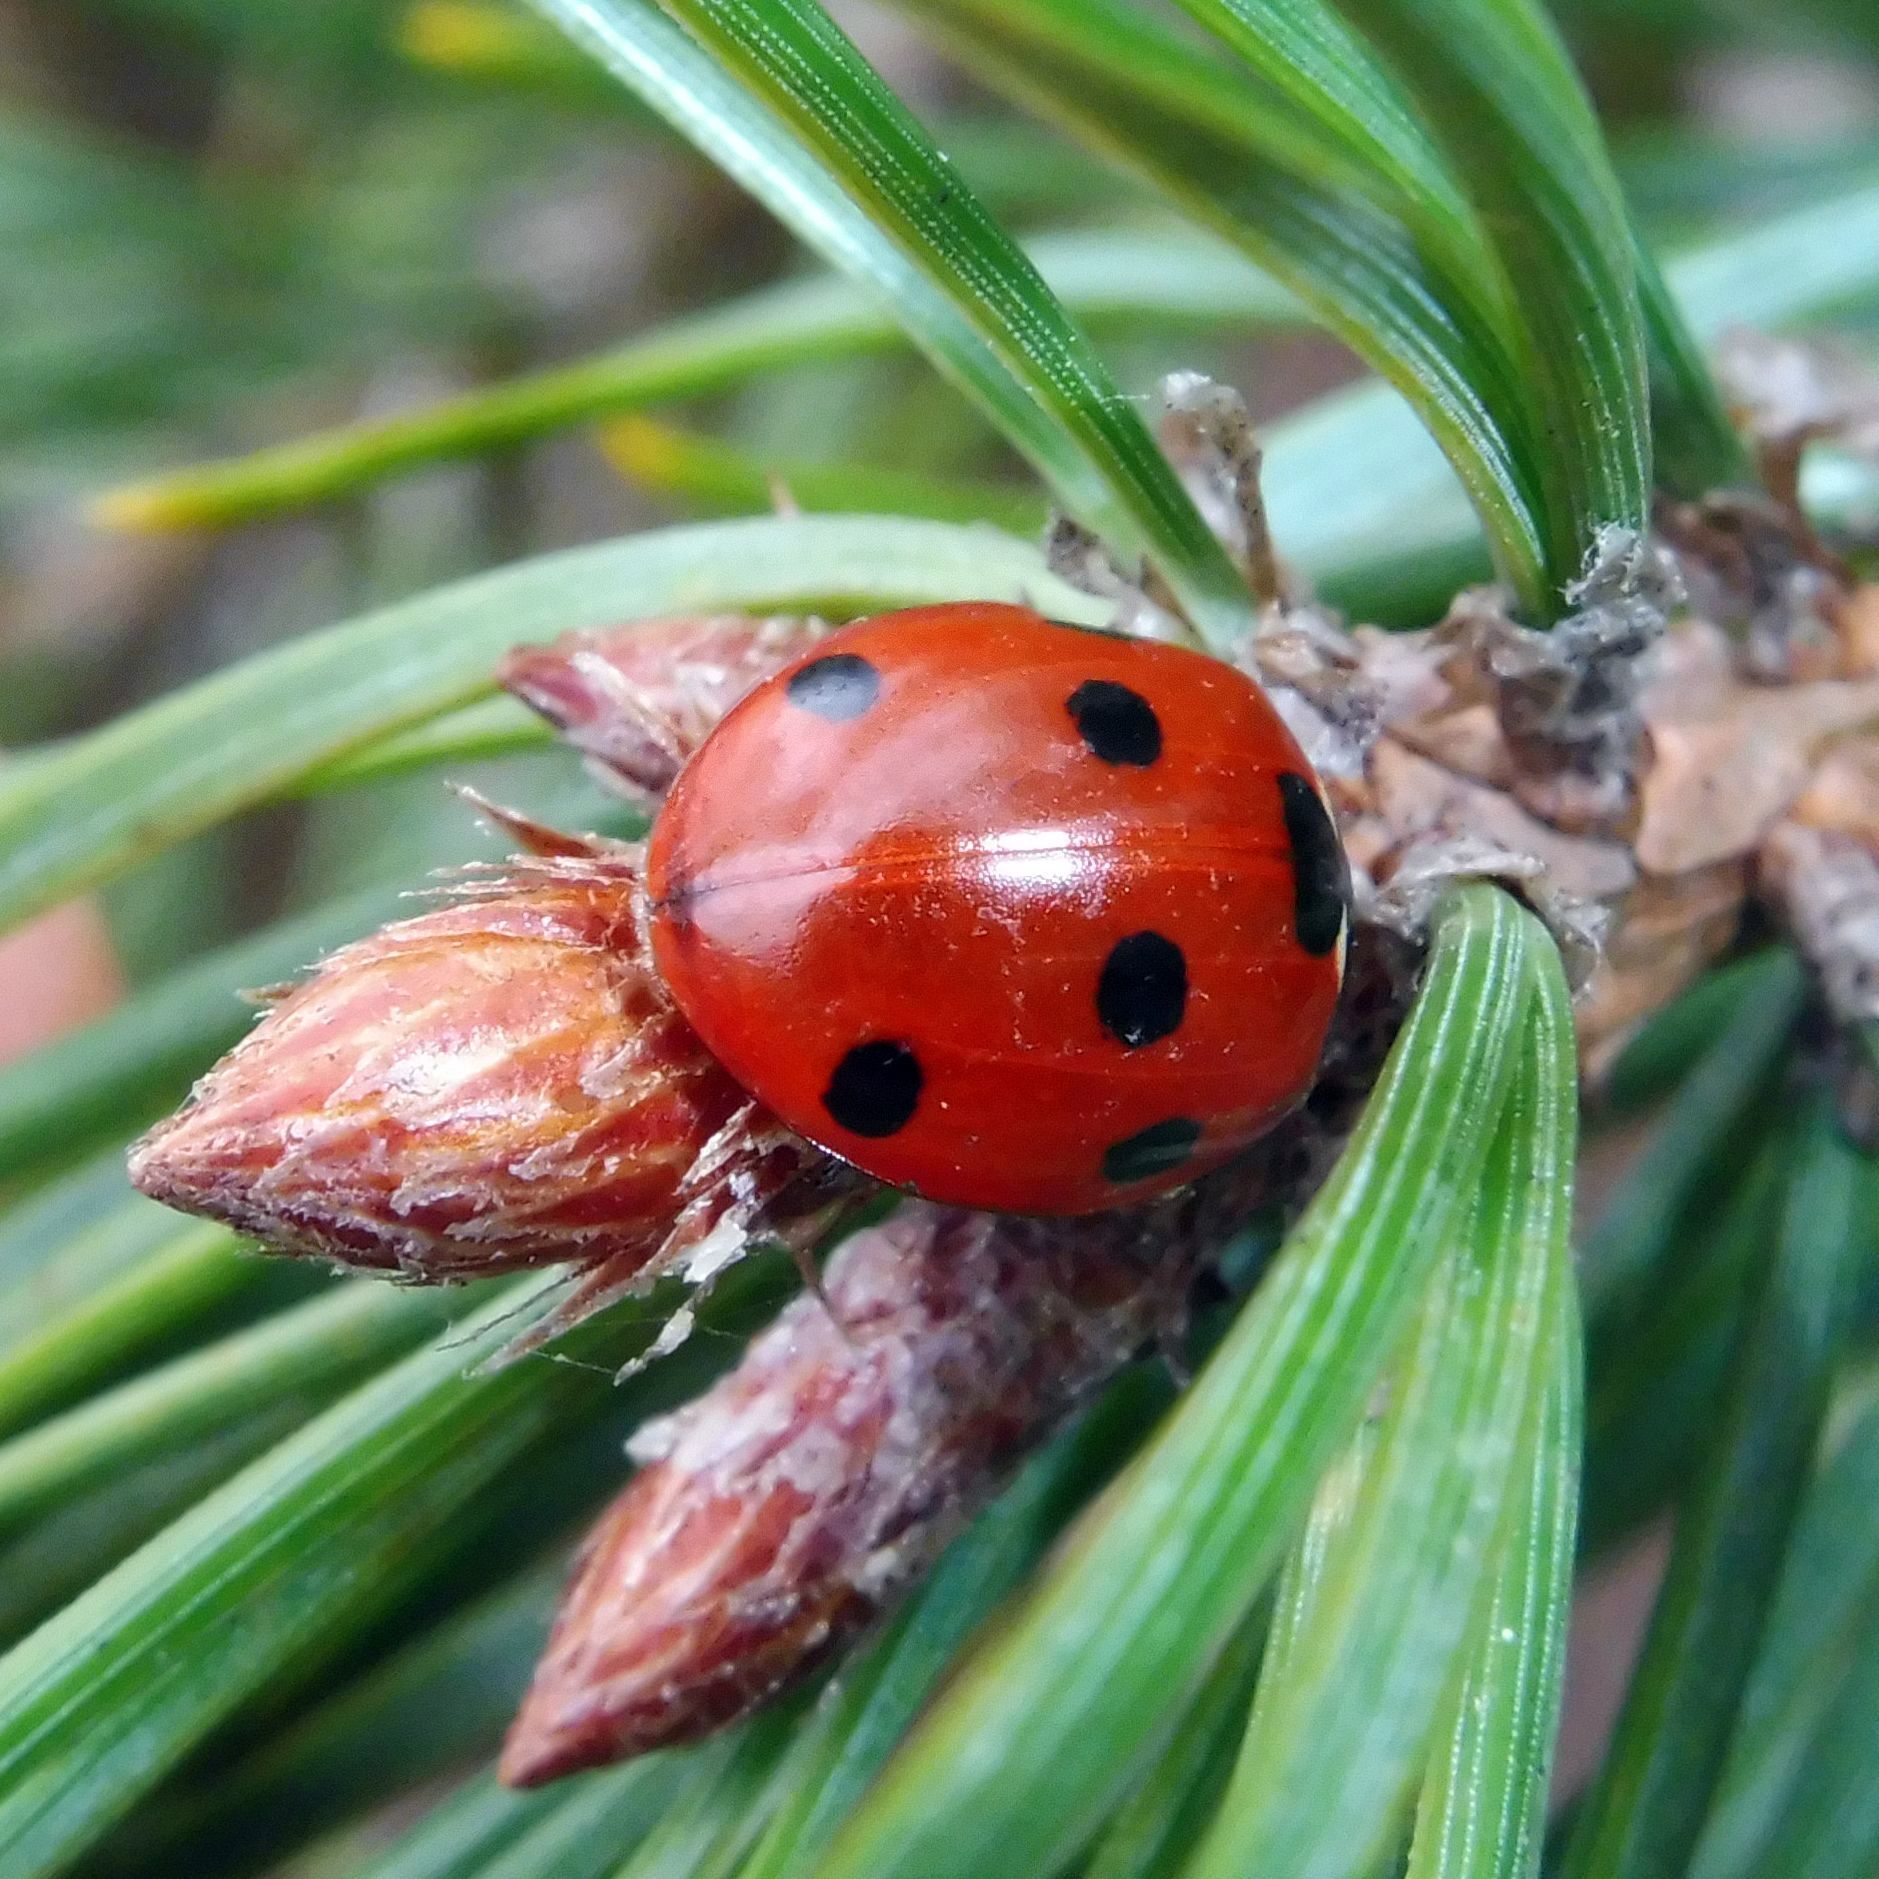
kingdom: Animalia
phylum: Arthropoda
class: Insecta
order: Coleoptera
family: Coccinellidae
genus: Coccinella
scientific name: Coccinella septempunctata
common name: Sevenspotted lady beetle
